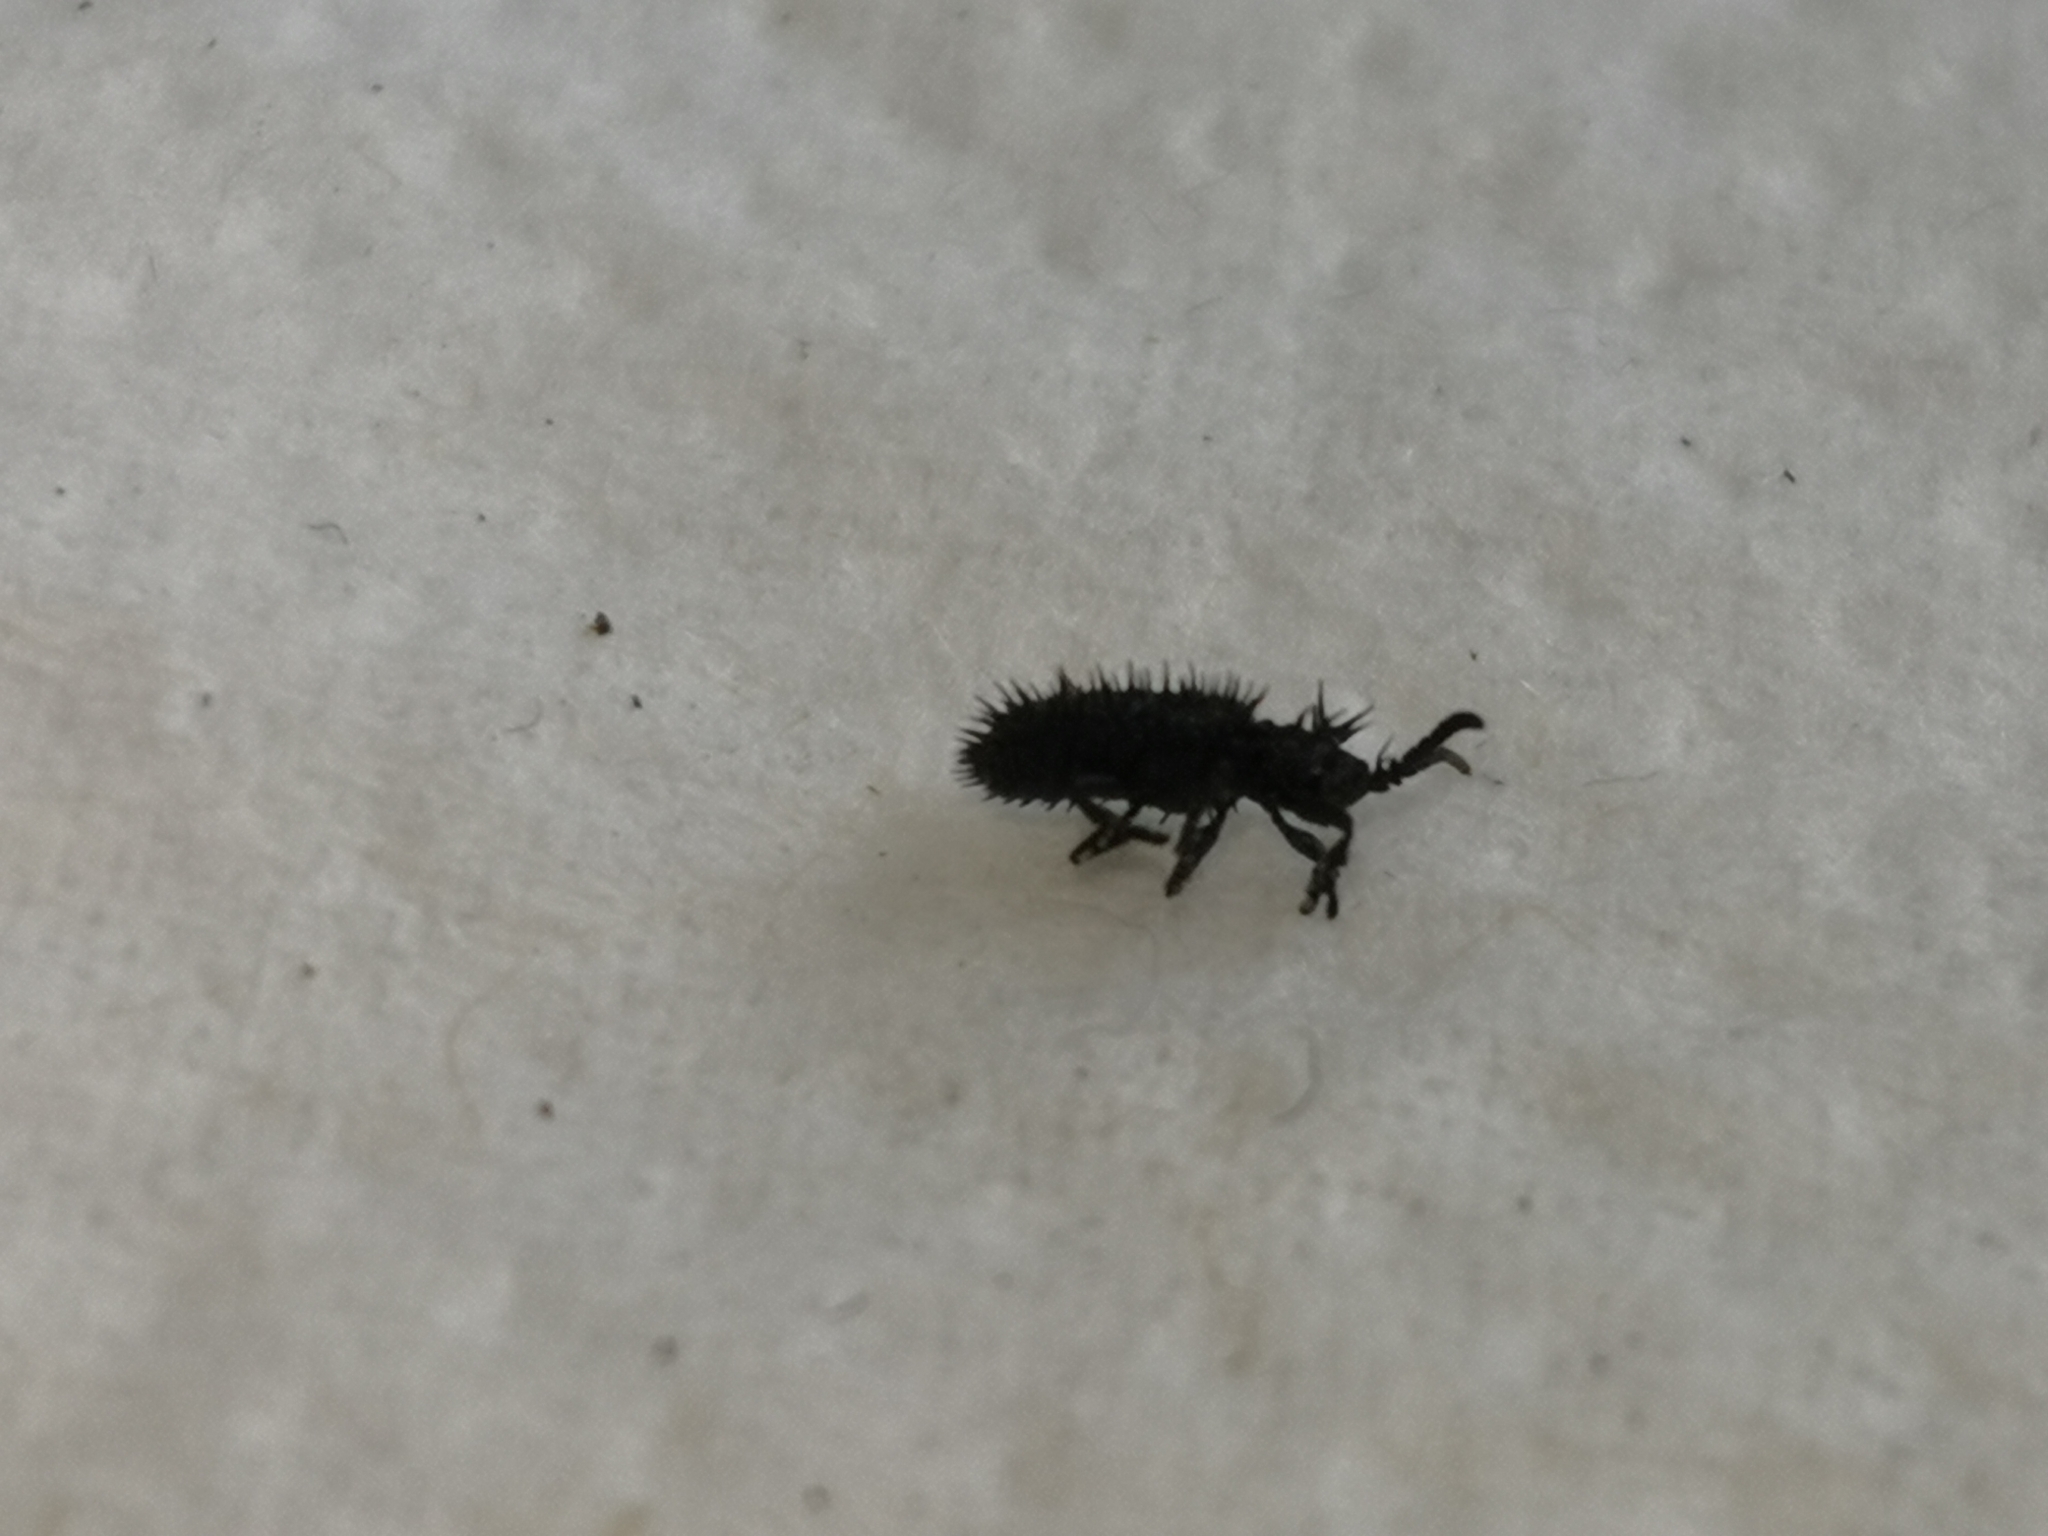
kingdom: Animalia
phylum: Arthropoda
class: Insecta
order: Coleoptera
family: Chrysomelidae
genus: Hispa
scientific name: Hispa atra
